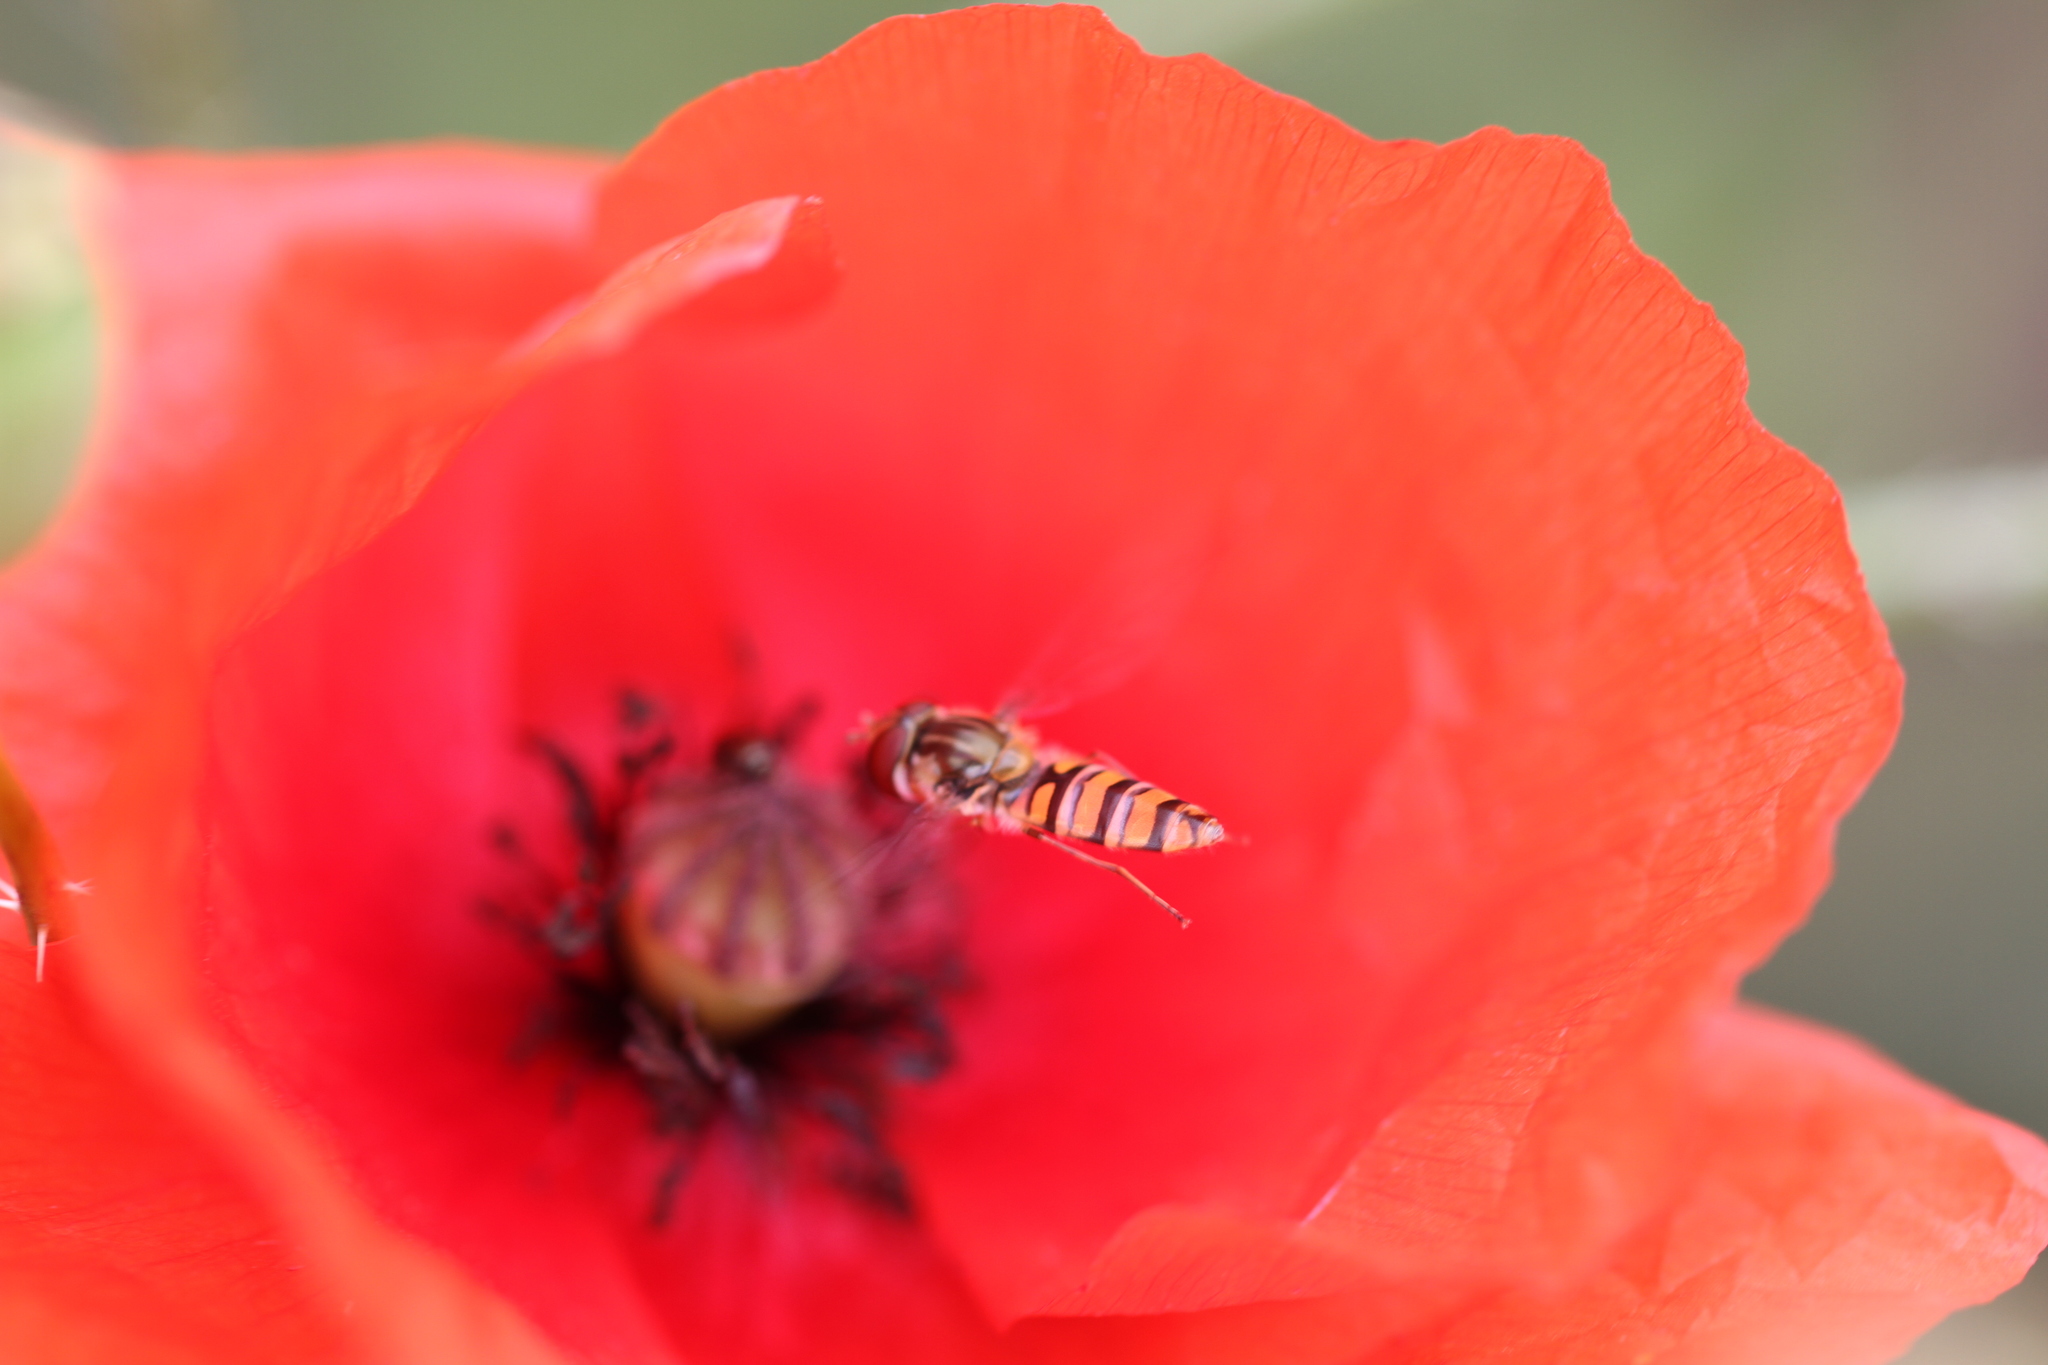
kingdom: Animalia
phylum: Arthropoda
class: Insecta
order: Diptera
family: Syrphidae
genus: Episyrphus
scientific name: Episyrphus balteatus
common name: Marmalade hoverfly
